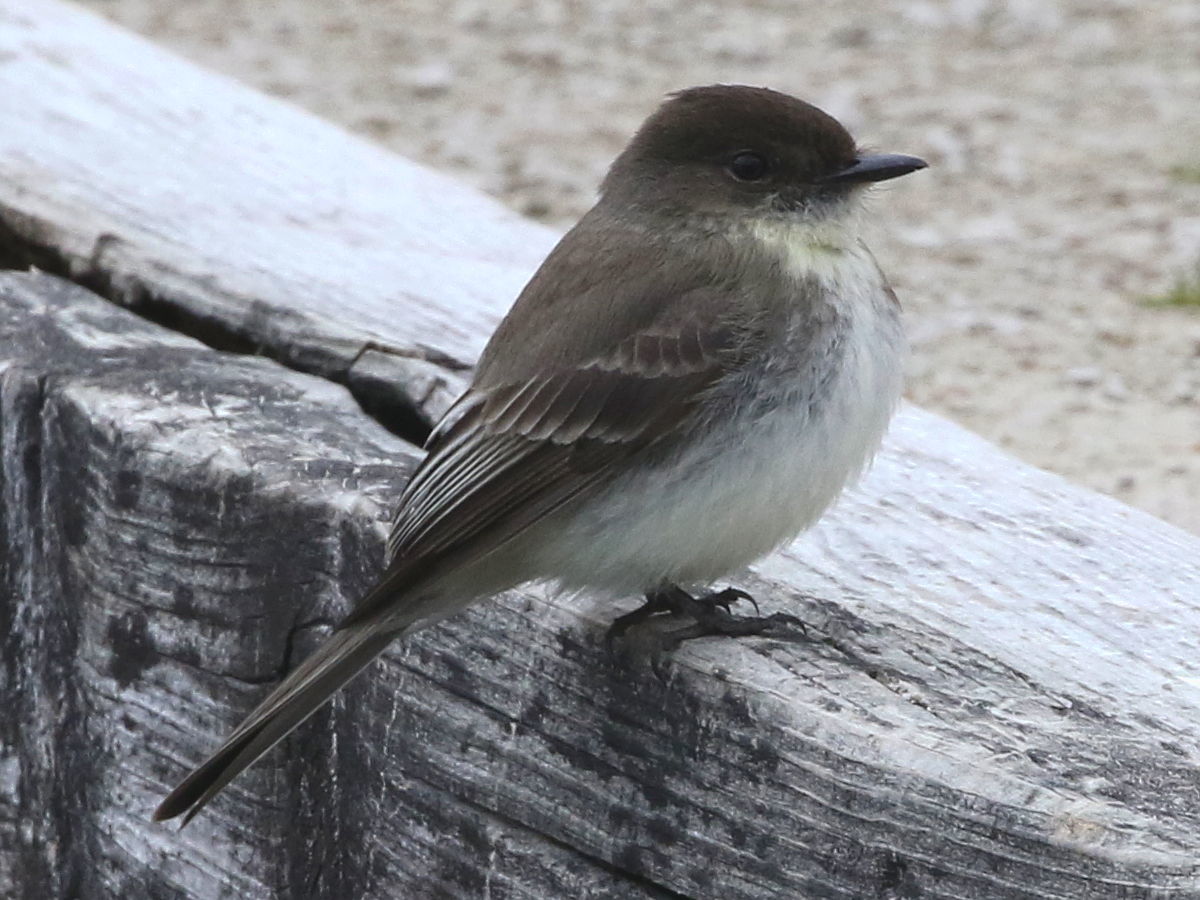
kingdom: Animalia
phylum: Chordata
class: Aves
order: Passeriformes
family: Tyrannidae
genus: Sayornis
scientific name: Sayornis phoebe
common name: Eastern phoebe
